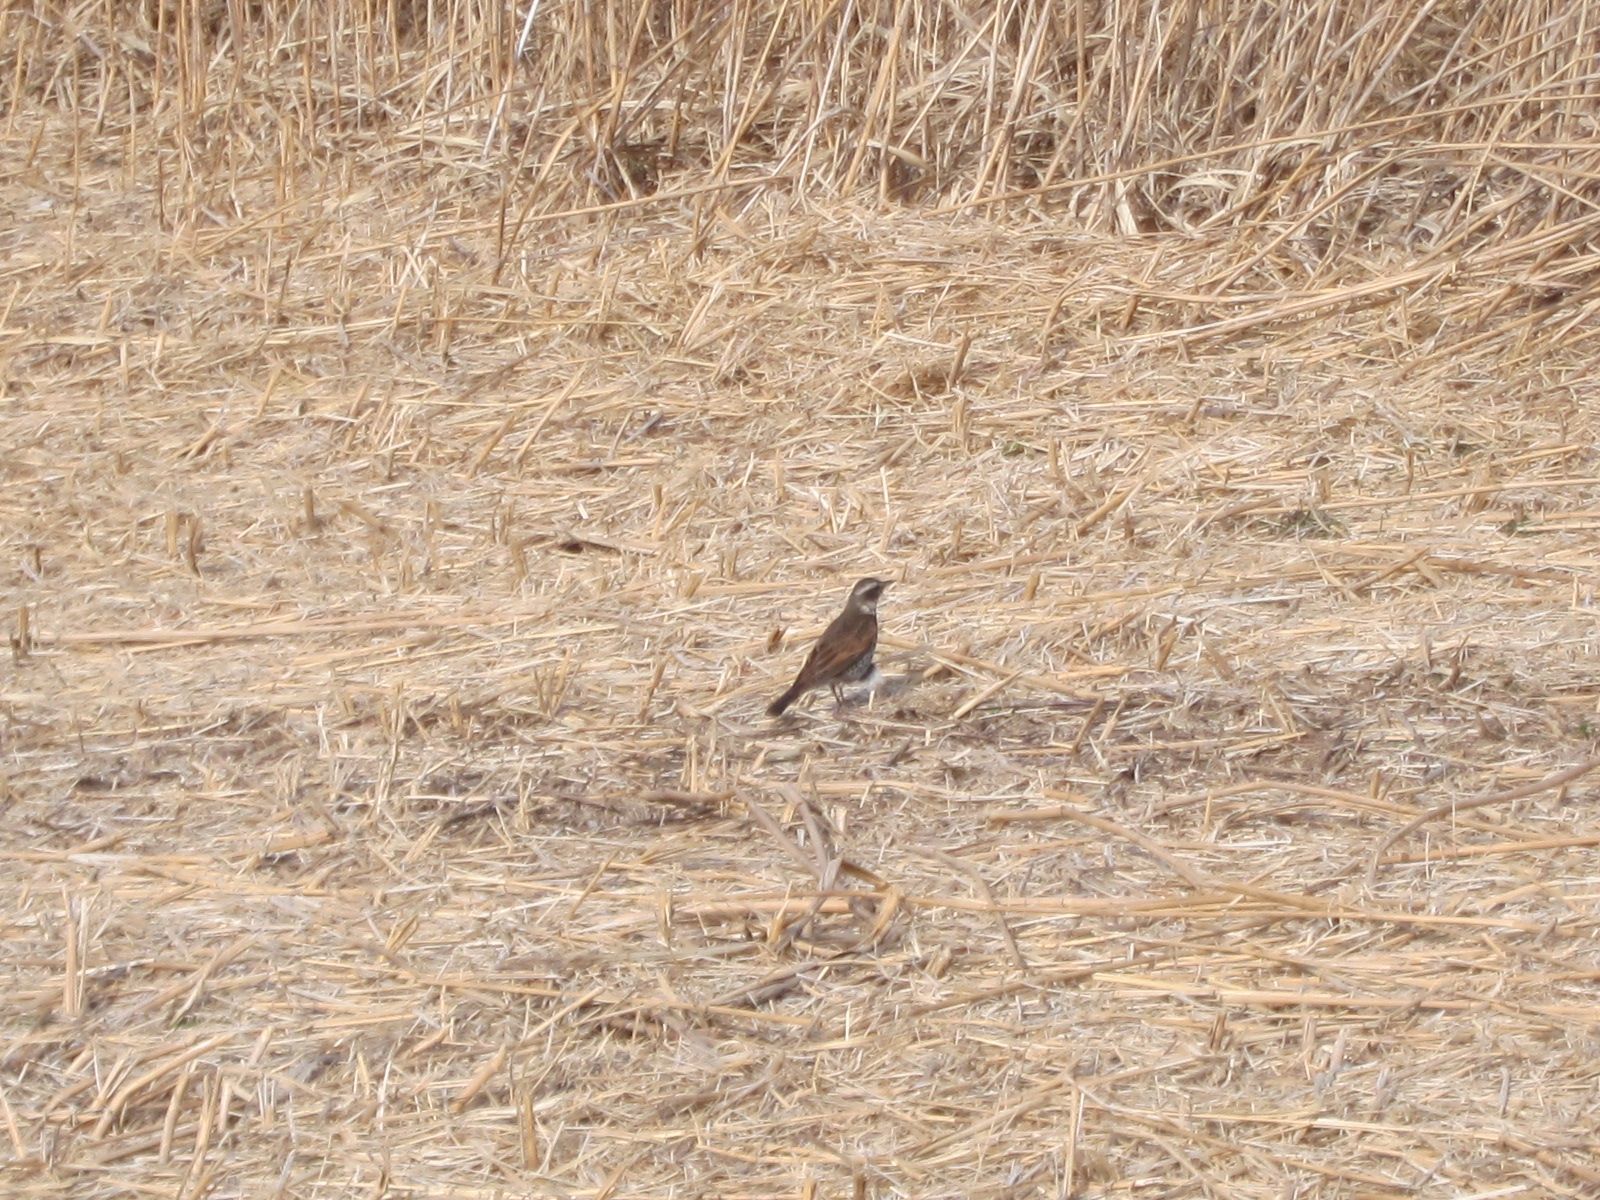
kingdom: Animalia
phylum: Chordata
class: Aves
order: Passeriformes
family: Turdidae
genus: Turdus
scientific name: Turdus eunomus
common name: Dusky thrush
